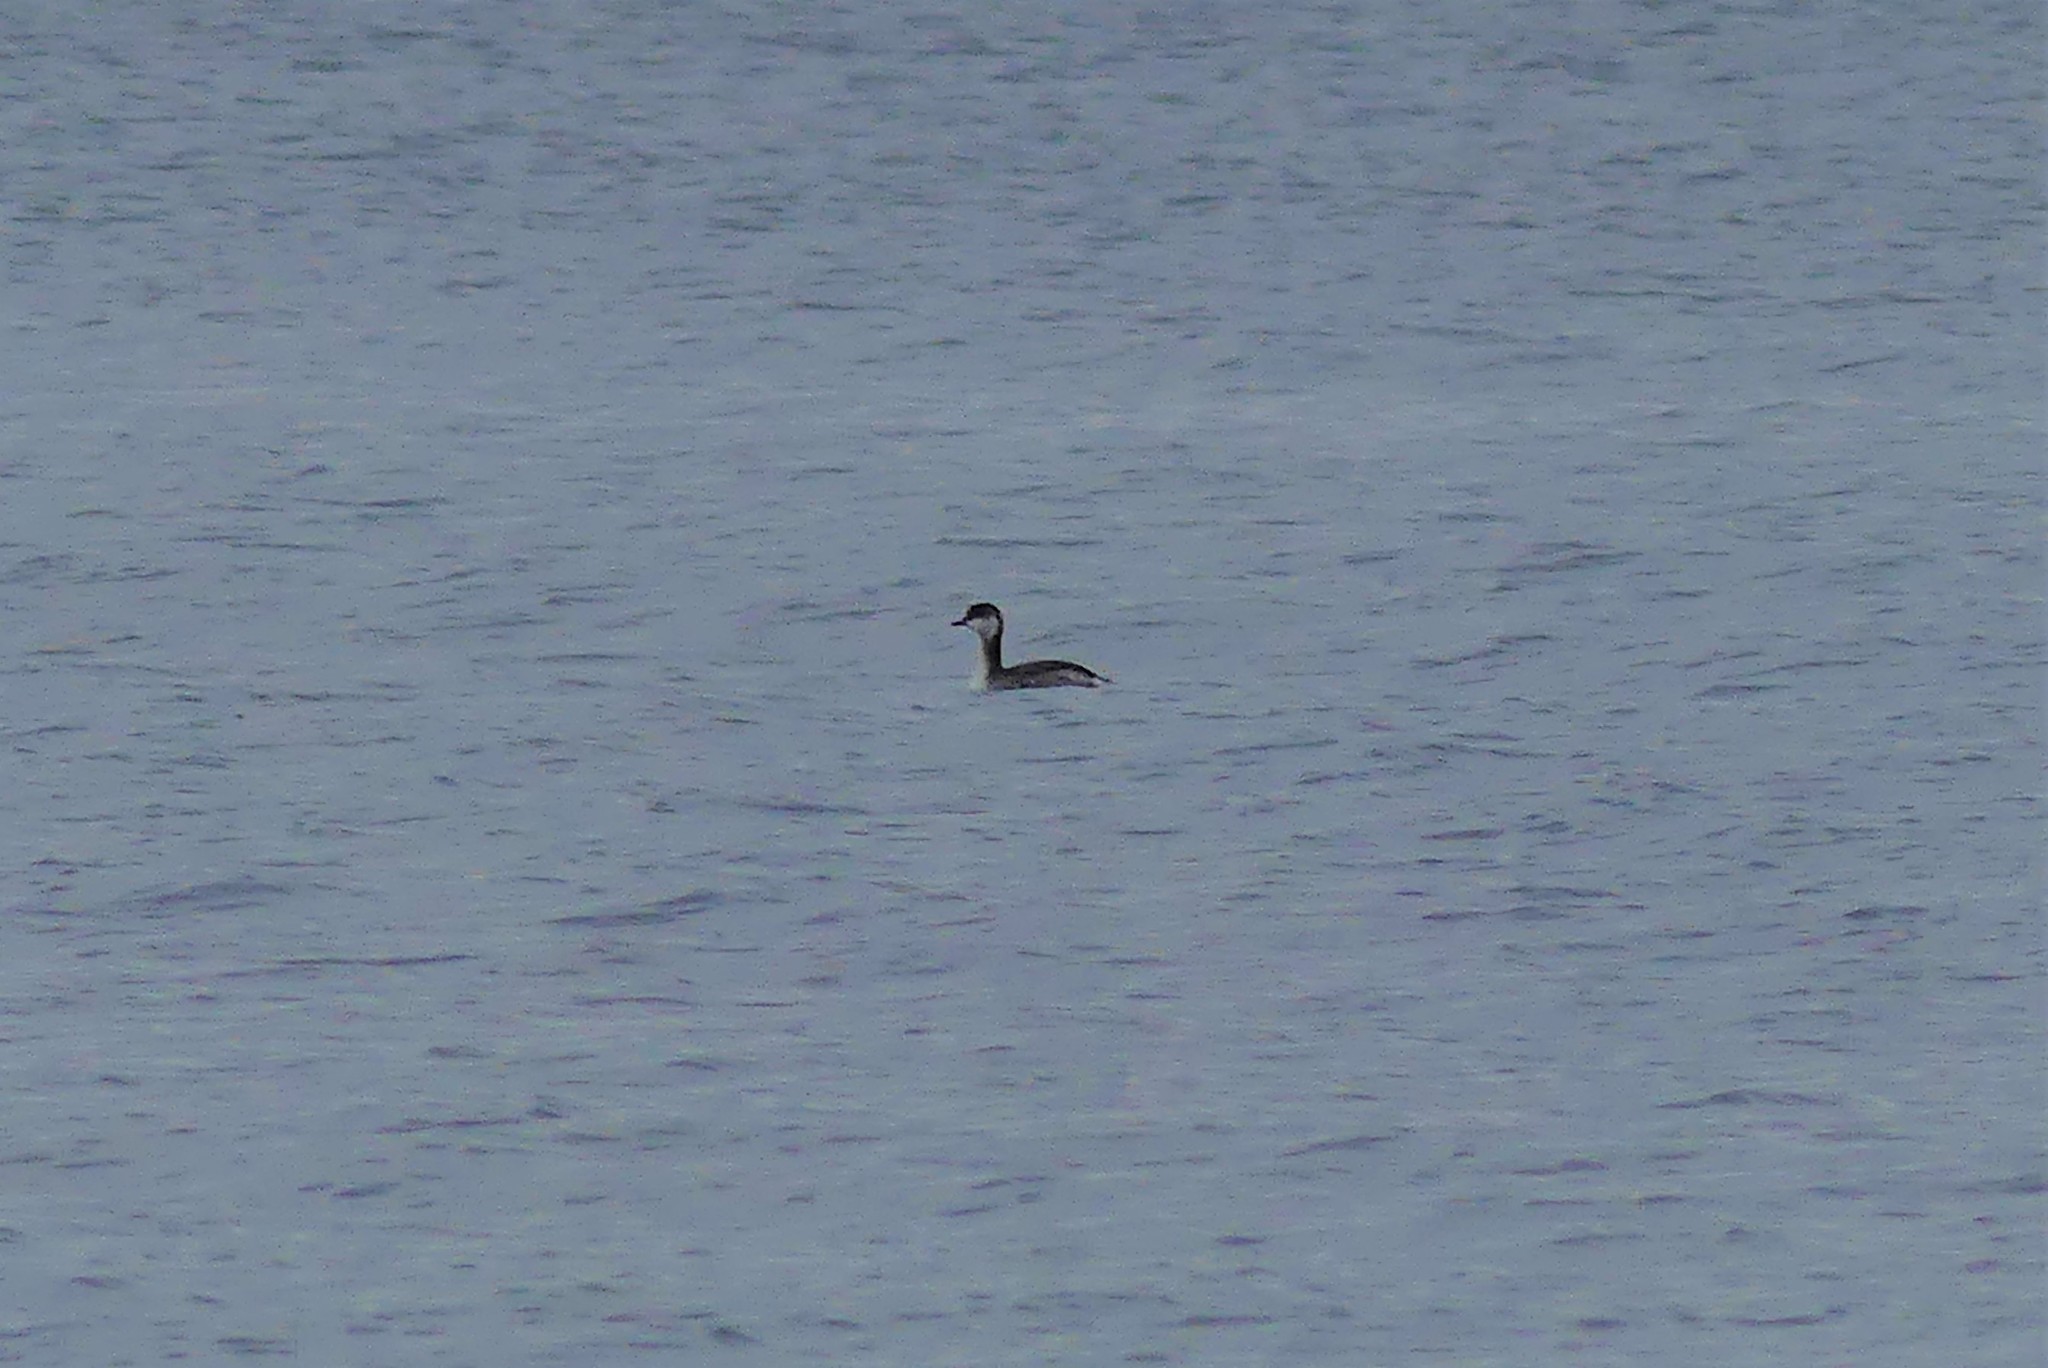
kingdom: Animalia
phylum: Chordata
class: Aves
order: Podicipediformes
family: Podicipedidae
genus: Podiceps
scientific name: Podiceps auritus
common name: Horned grebe
